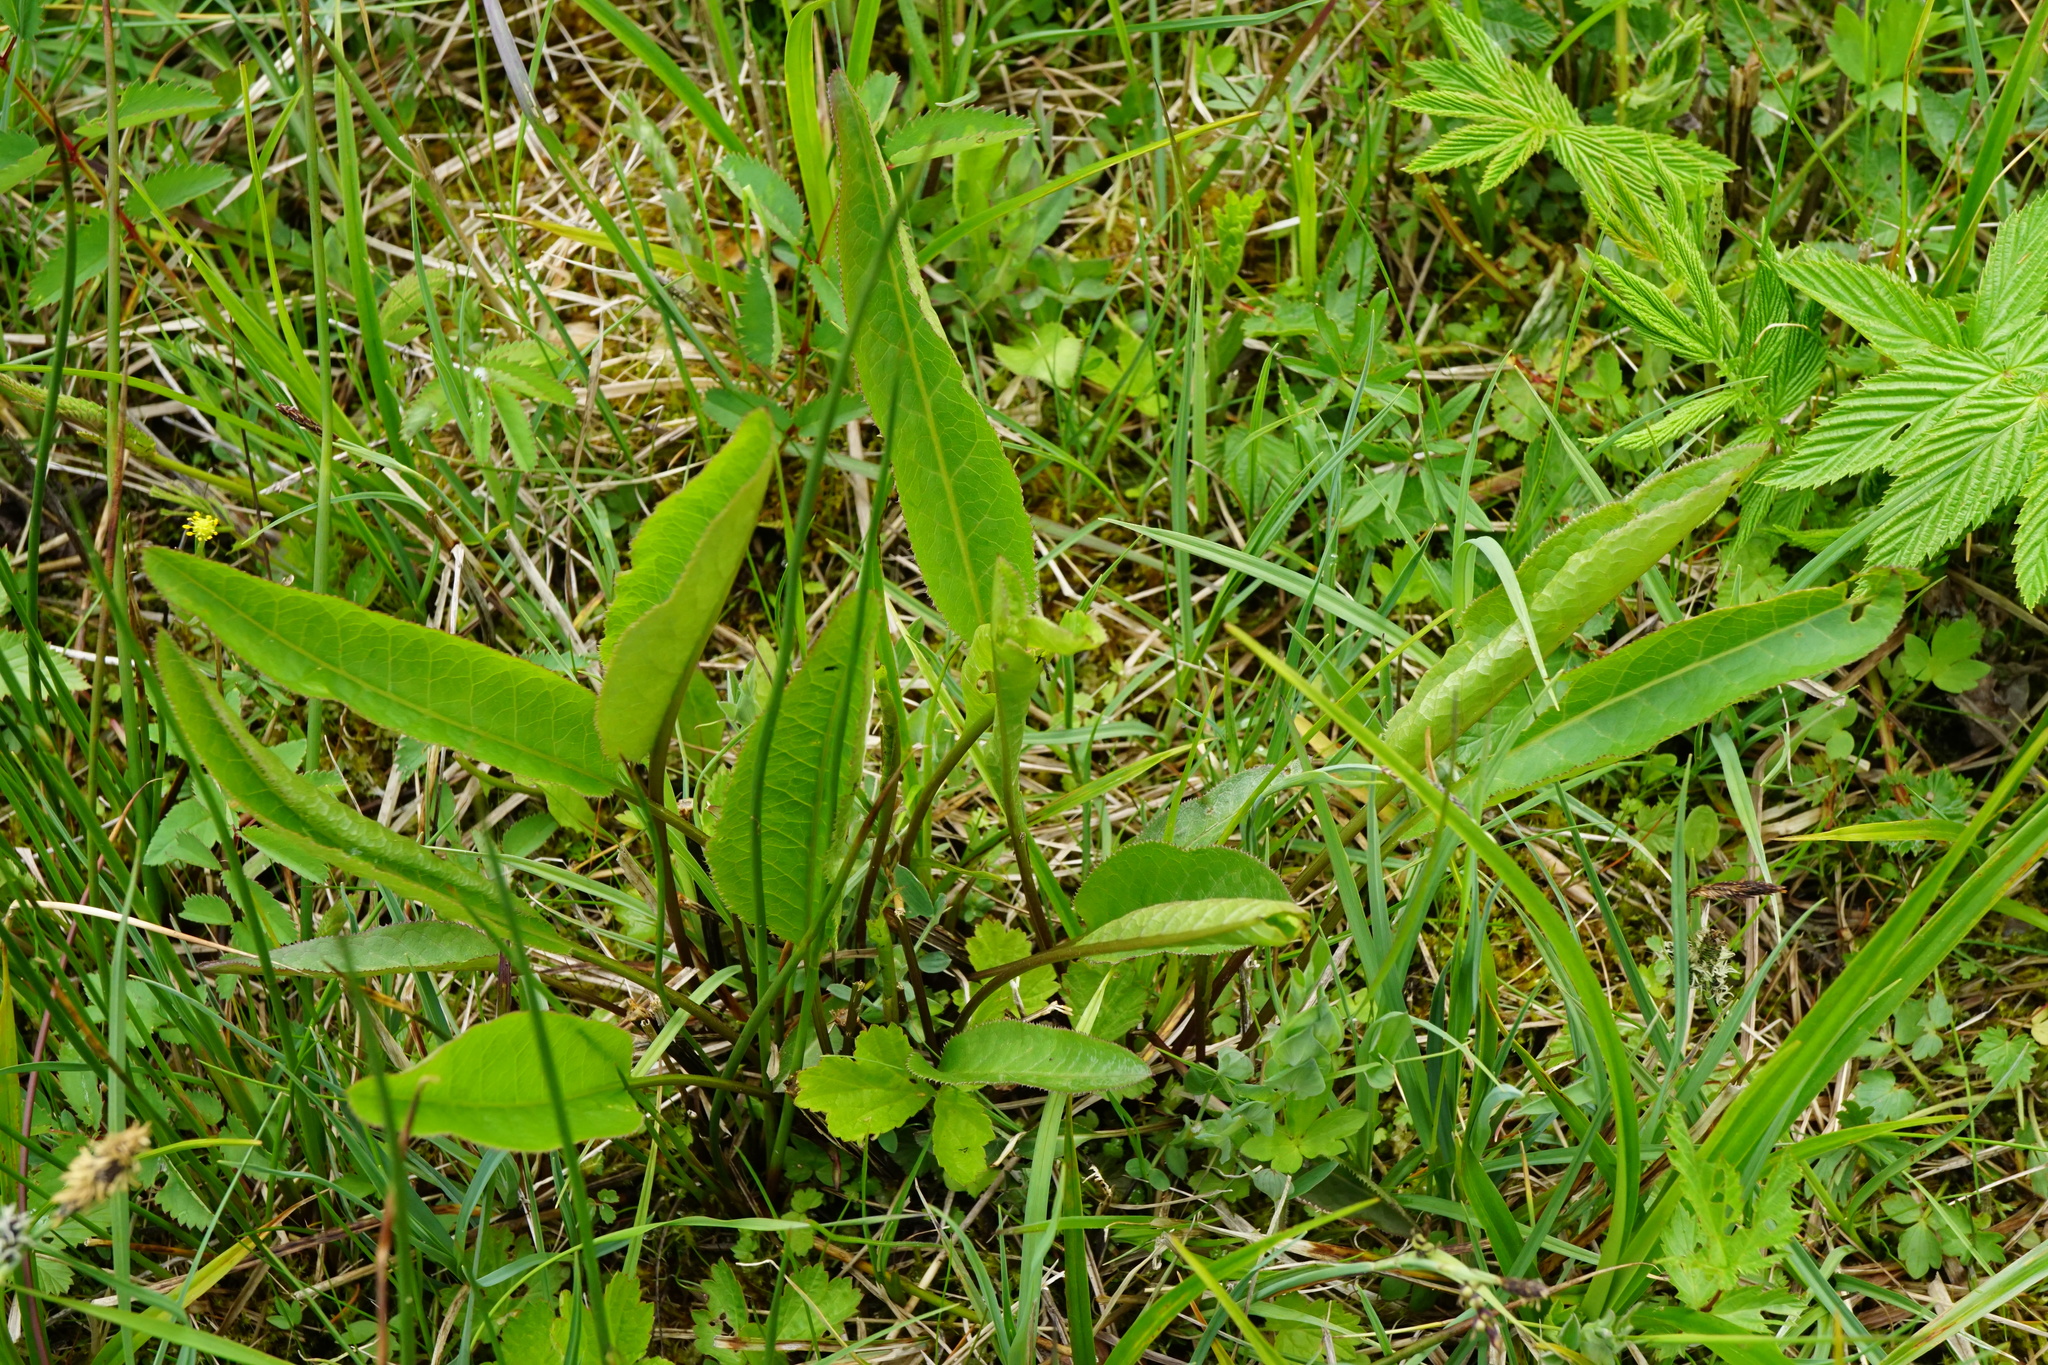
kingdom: Plantae
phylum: Tracheophyta
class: Magnoliopsida
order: Asterales
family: Asteraceae
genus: Serratula
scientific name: Serratula tinctoria
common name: Saw-wort
